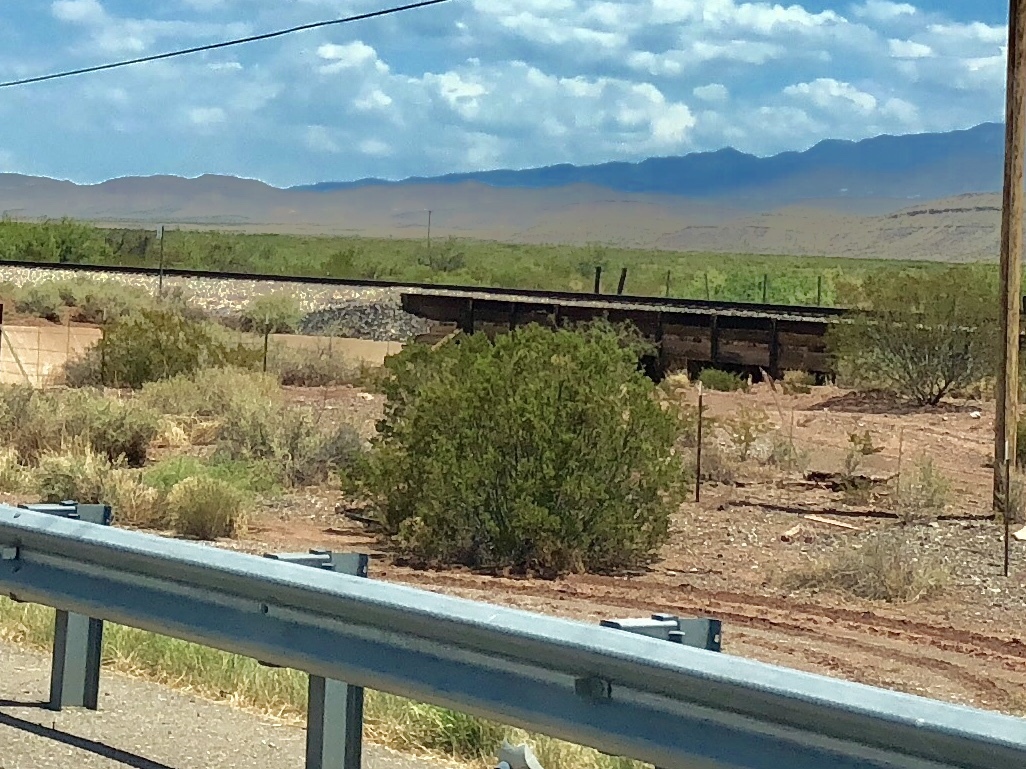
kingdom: Plantae
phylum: Tracheophyta
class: Magnoliopsida
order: Zygophyllales
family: Zygophyllaceae
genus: Larrea
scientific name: Larrea tridentata
